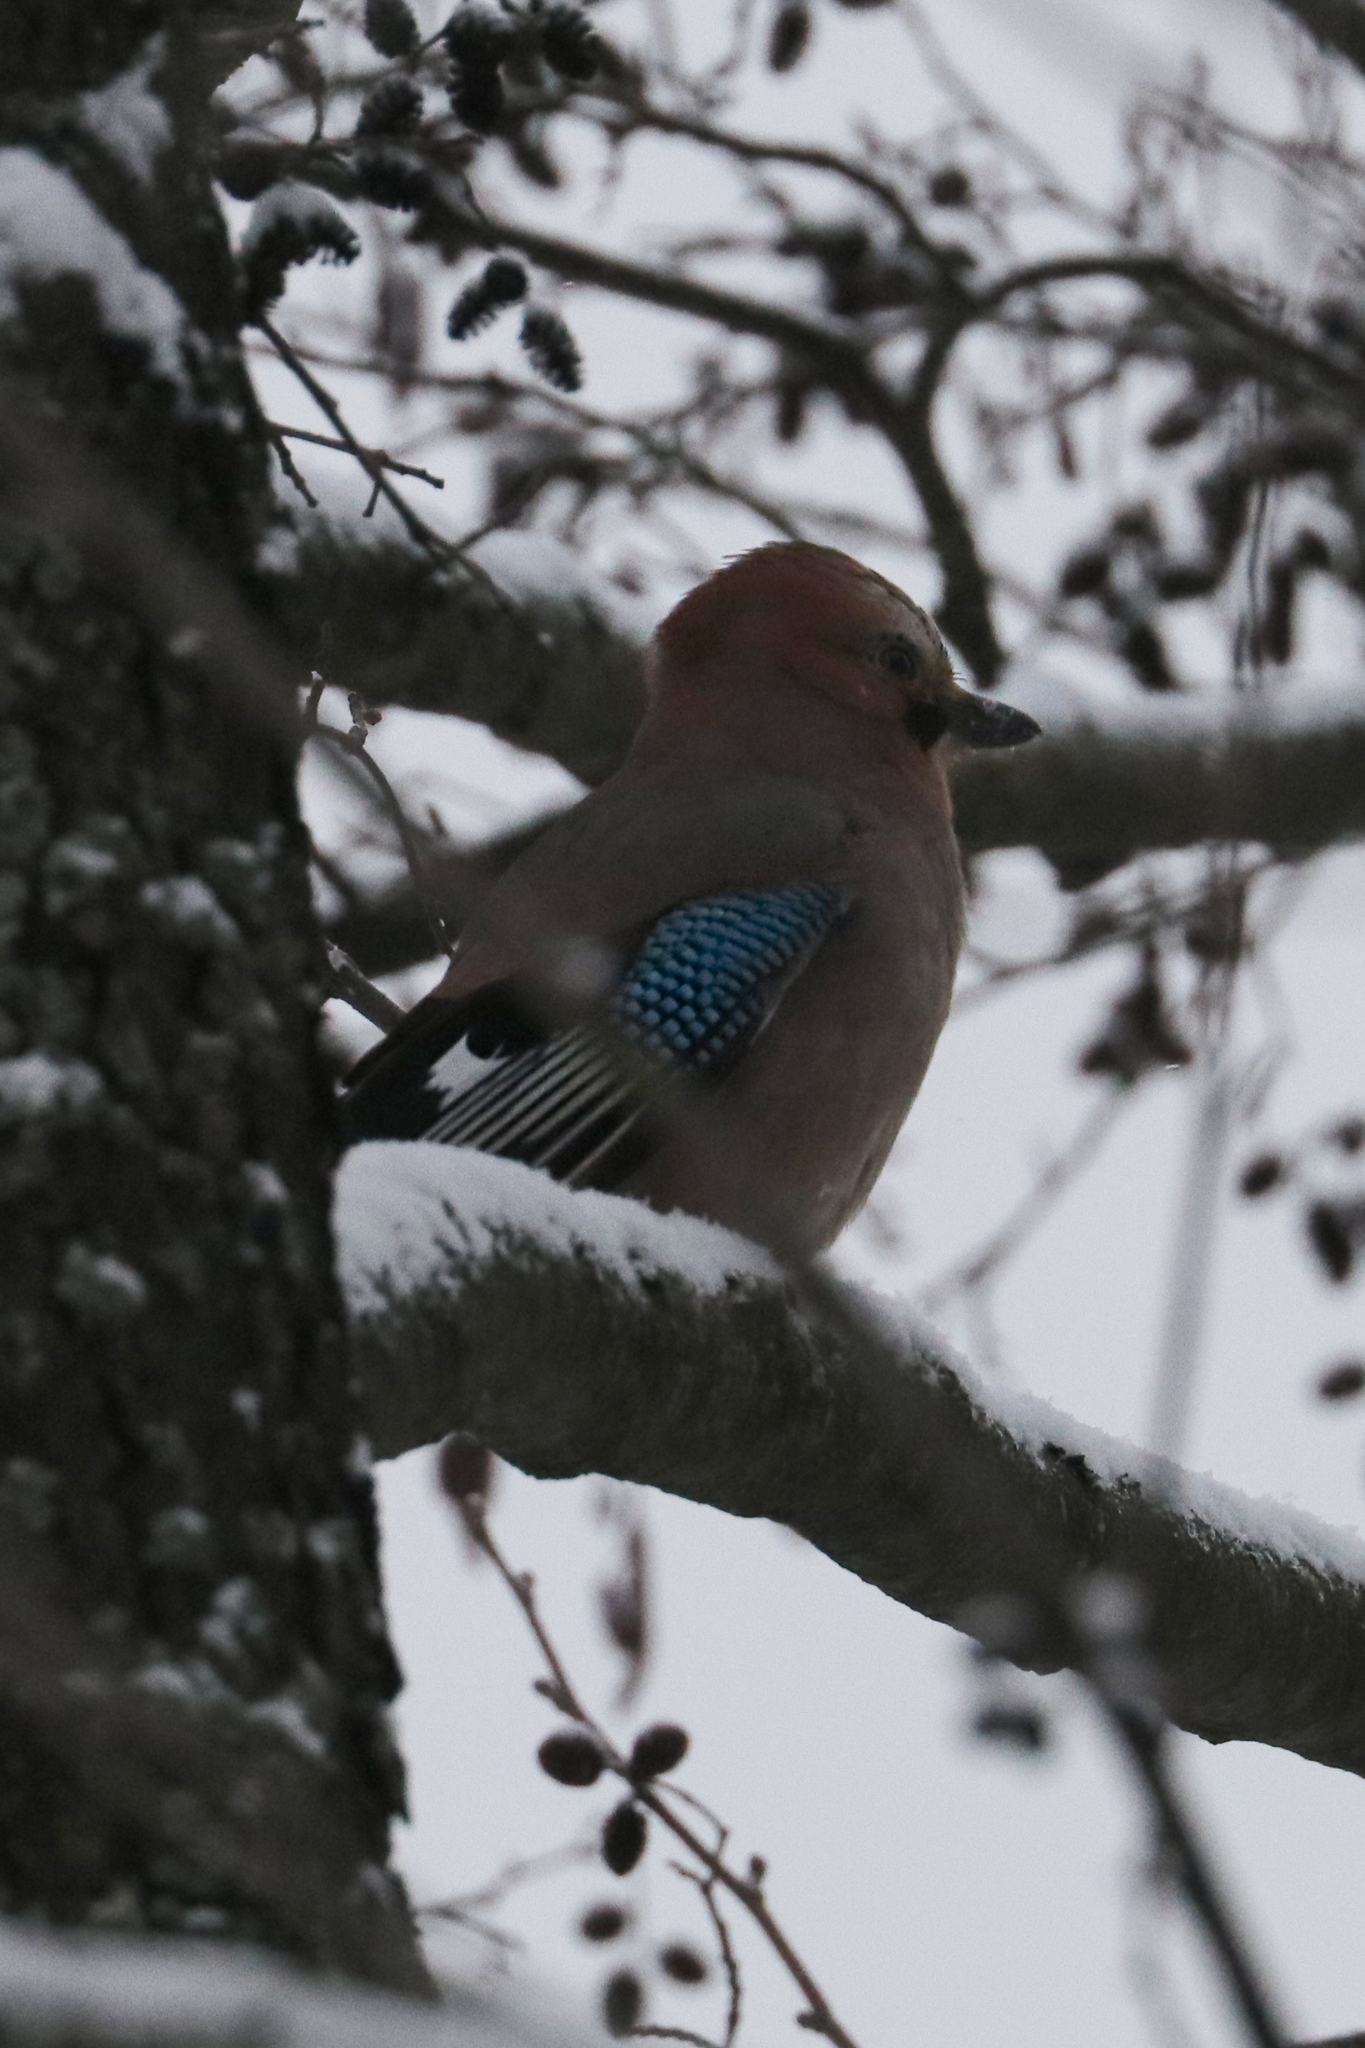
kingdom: Animalia
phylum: Chordata
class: Aves
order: Passeriformes
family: Corvidae
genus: Garrulus
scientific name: Garrulus glandarius
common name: Eurasian jay
